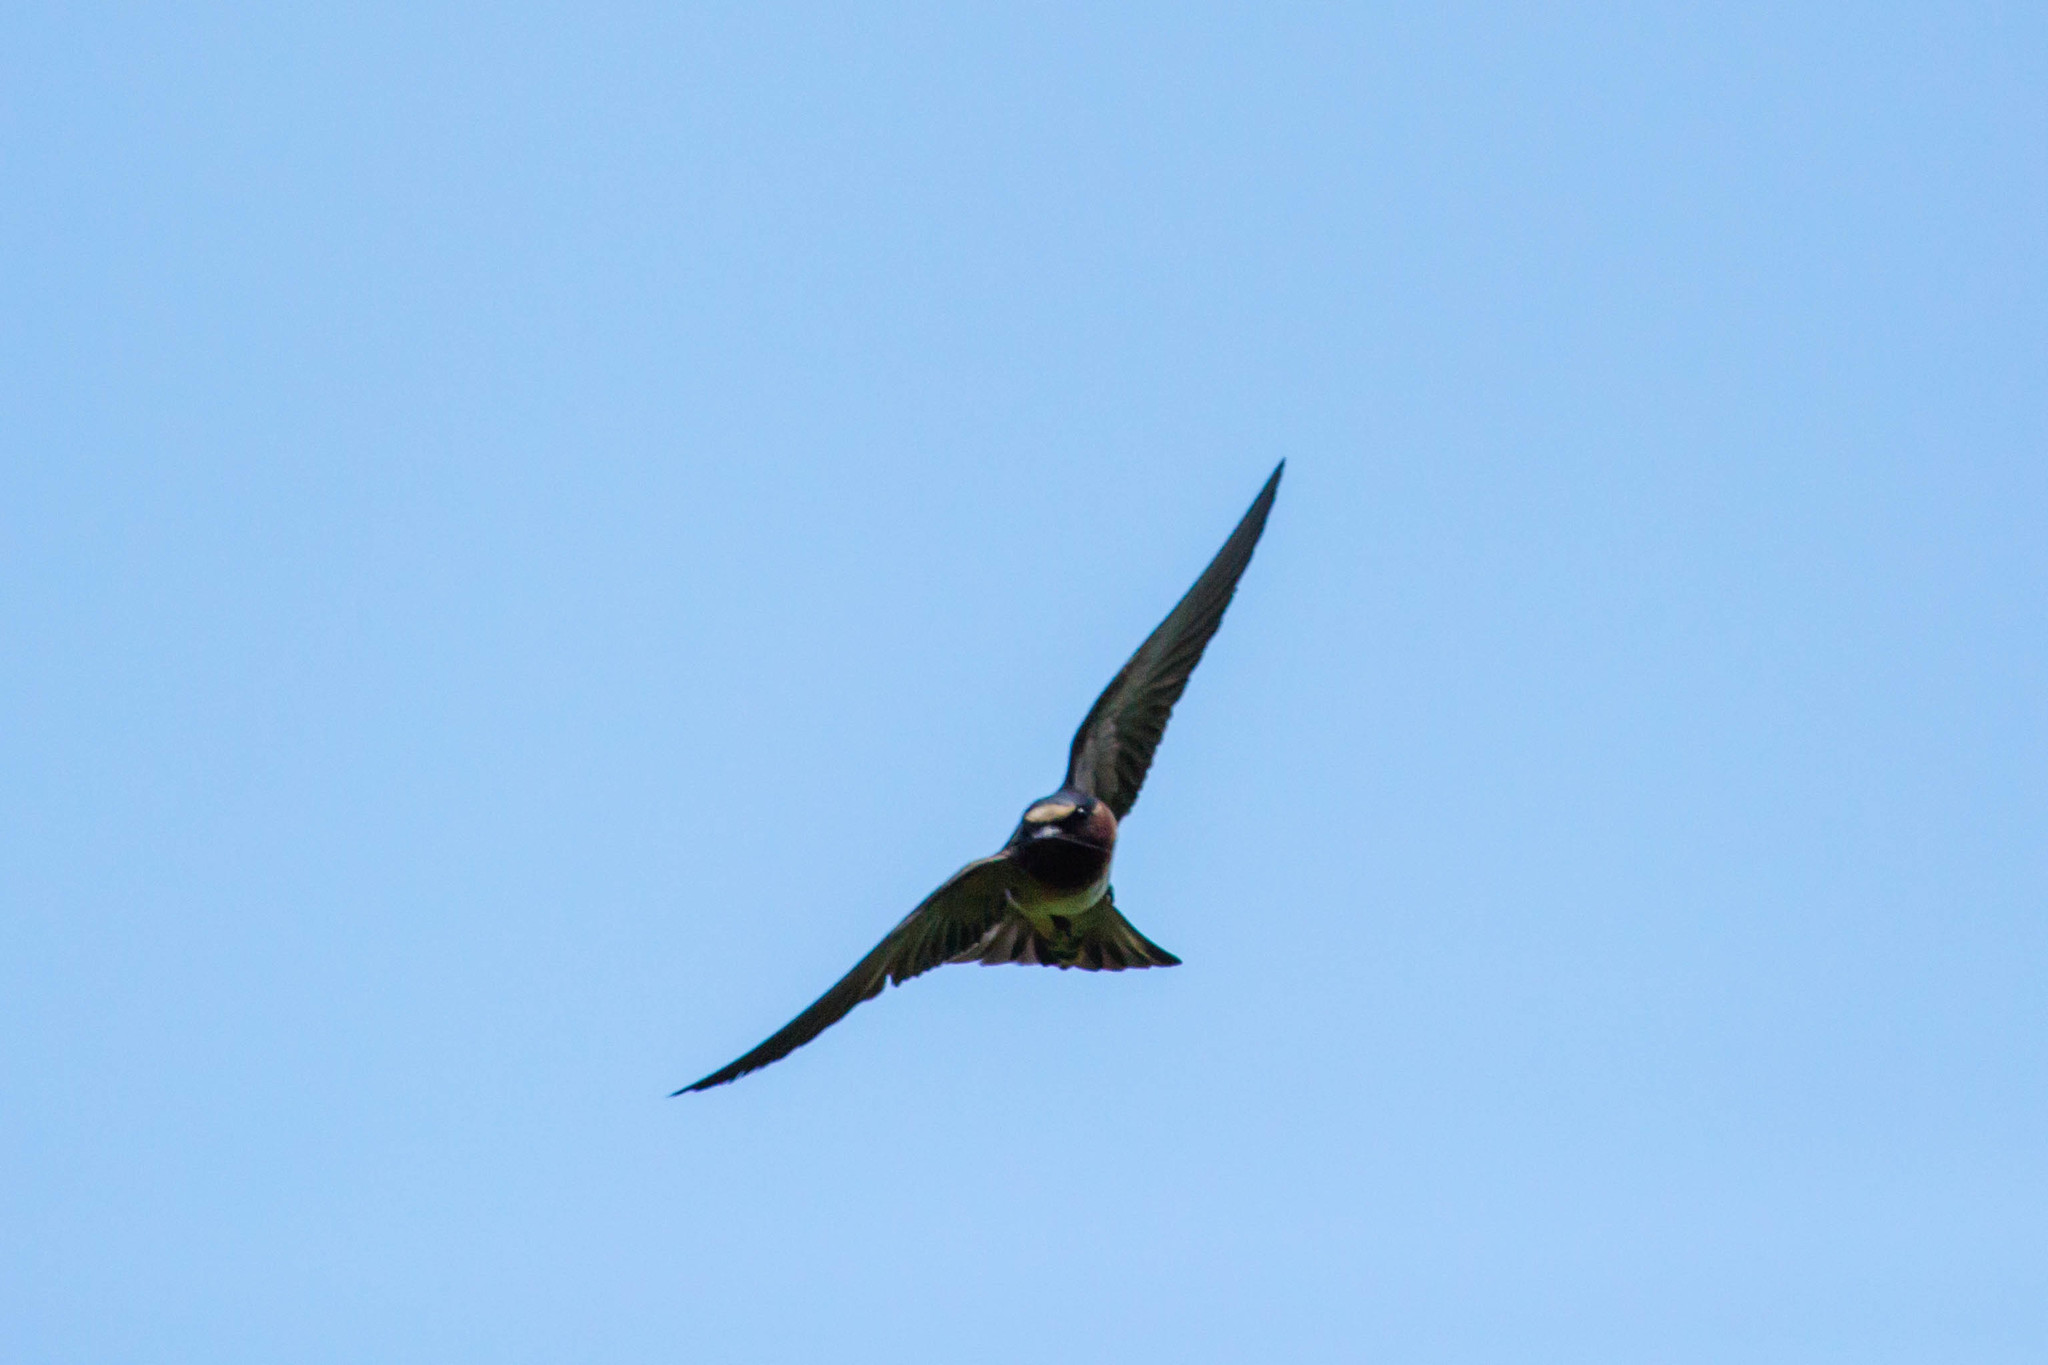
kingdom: Animalia
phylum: Chordata
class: Aves
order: Passeriformes
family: Hirundinidae
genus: Petrochelidon
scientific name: Petrochelidon pyrrhonota
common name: American cliff swallow
